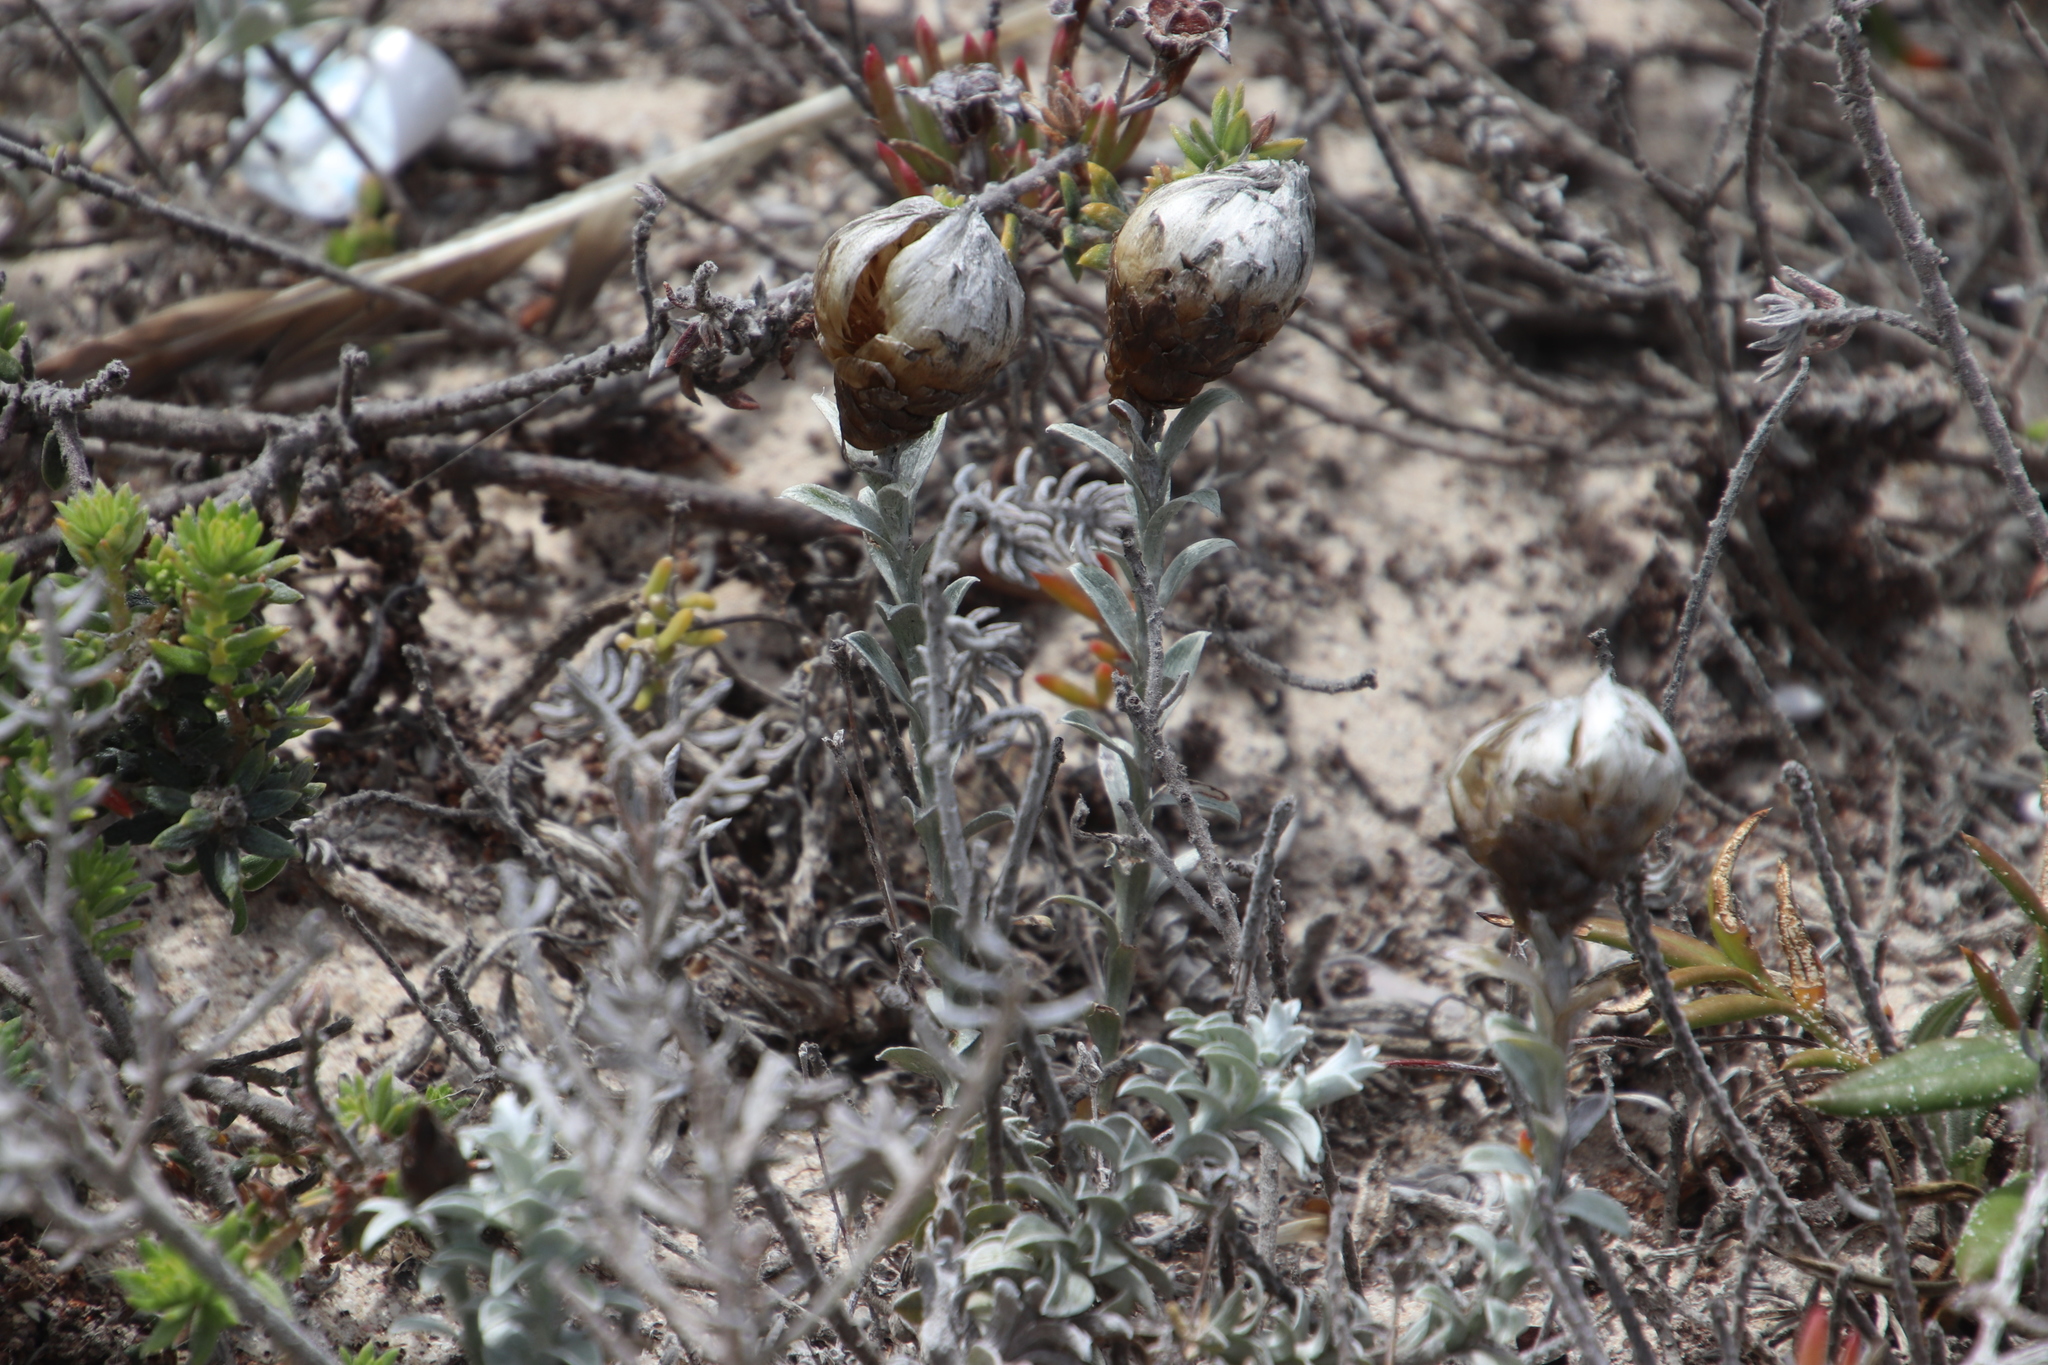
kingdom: Plantae
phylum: Tracheophyta
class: Magnoliopsida
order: Asterales
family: Asteraceae
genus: Helichrysum
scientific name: Helichrysum retortum
